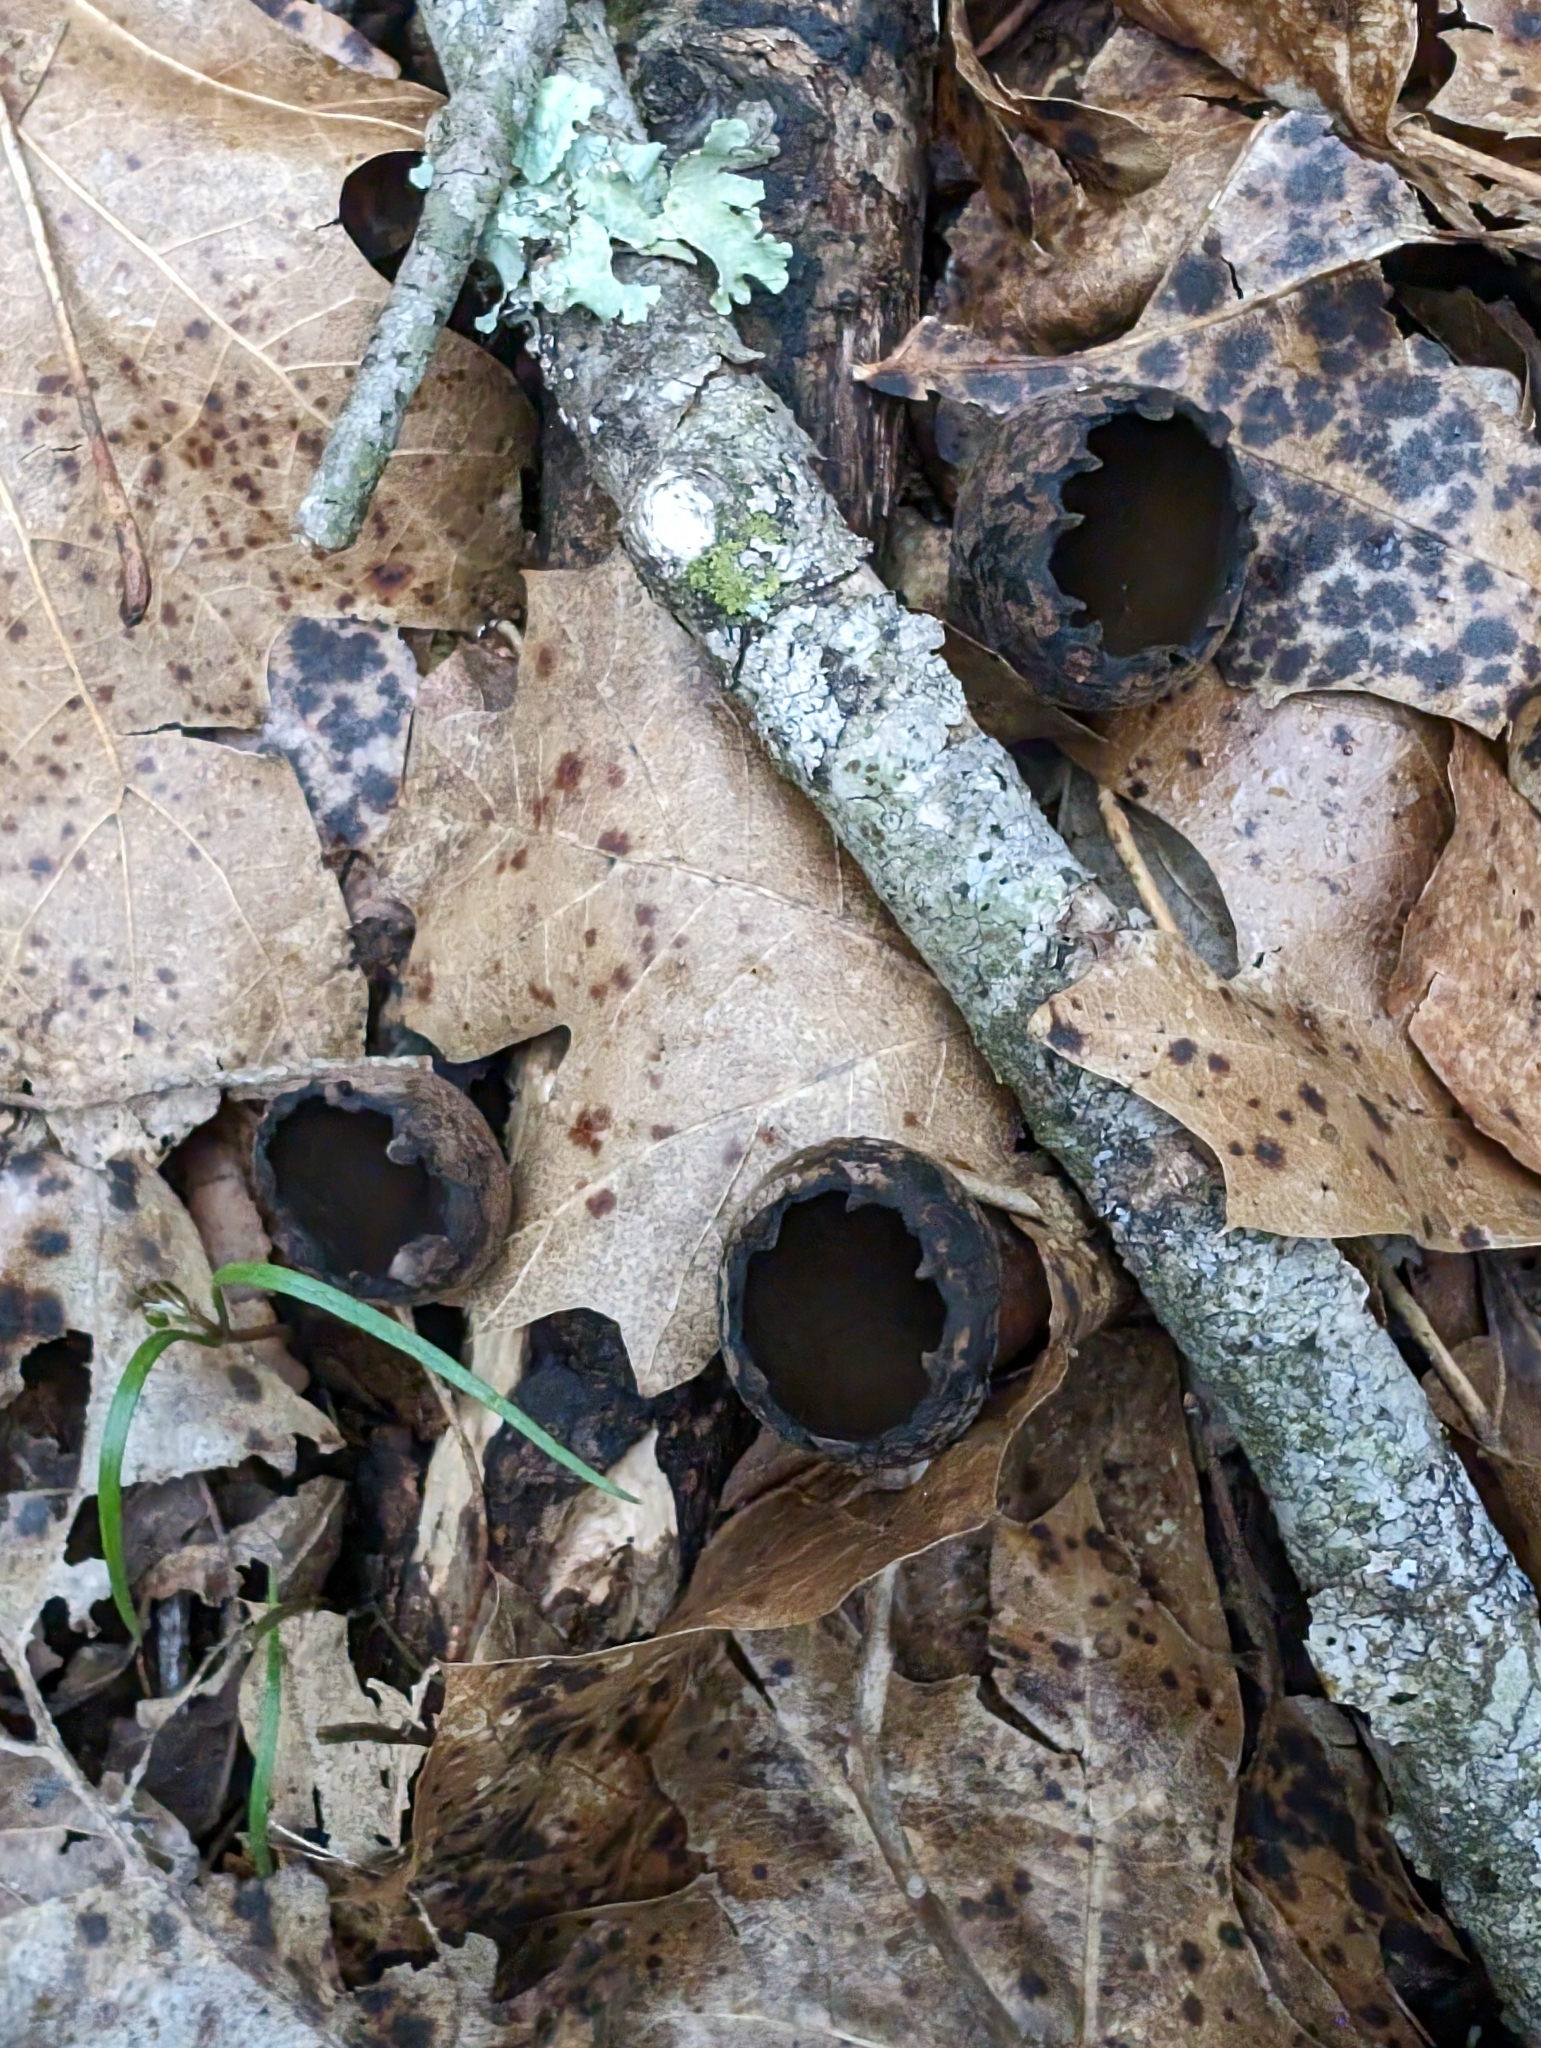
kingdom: Fungi
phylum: Ascomycota
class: Pezizomycetes
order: Pezizales
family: Sarcosomataceae
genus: Urnula
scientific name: Urnula craterium
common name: Devil's urn
